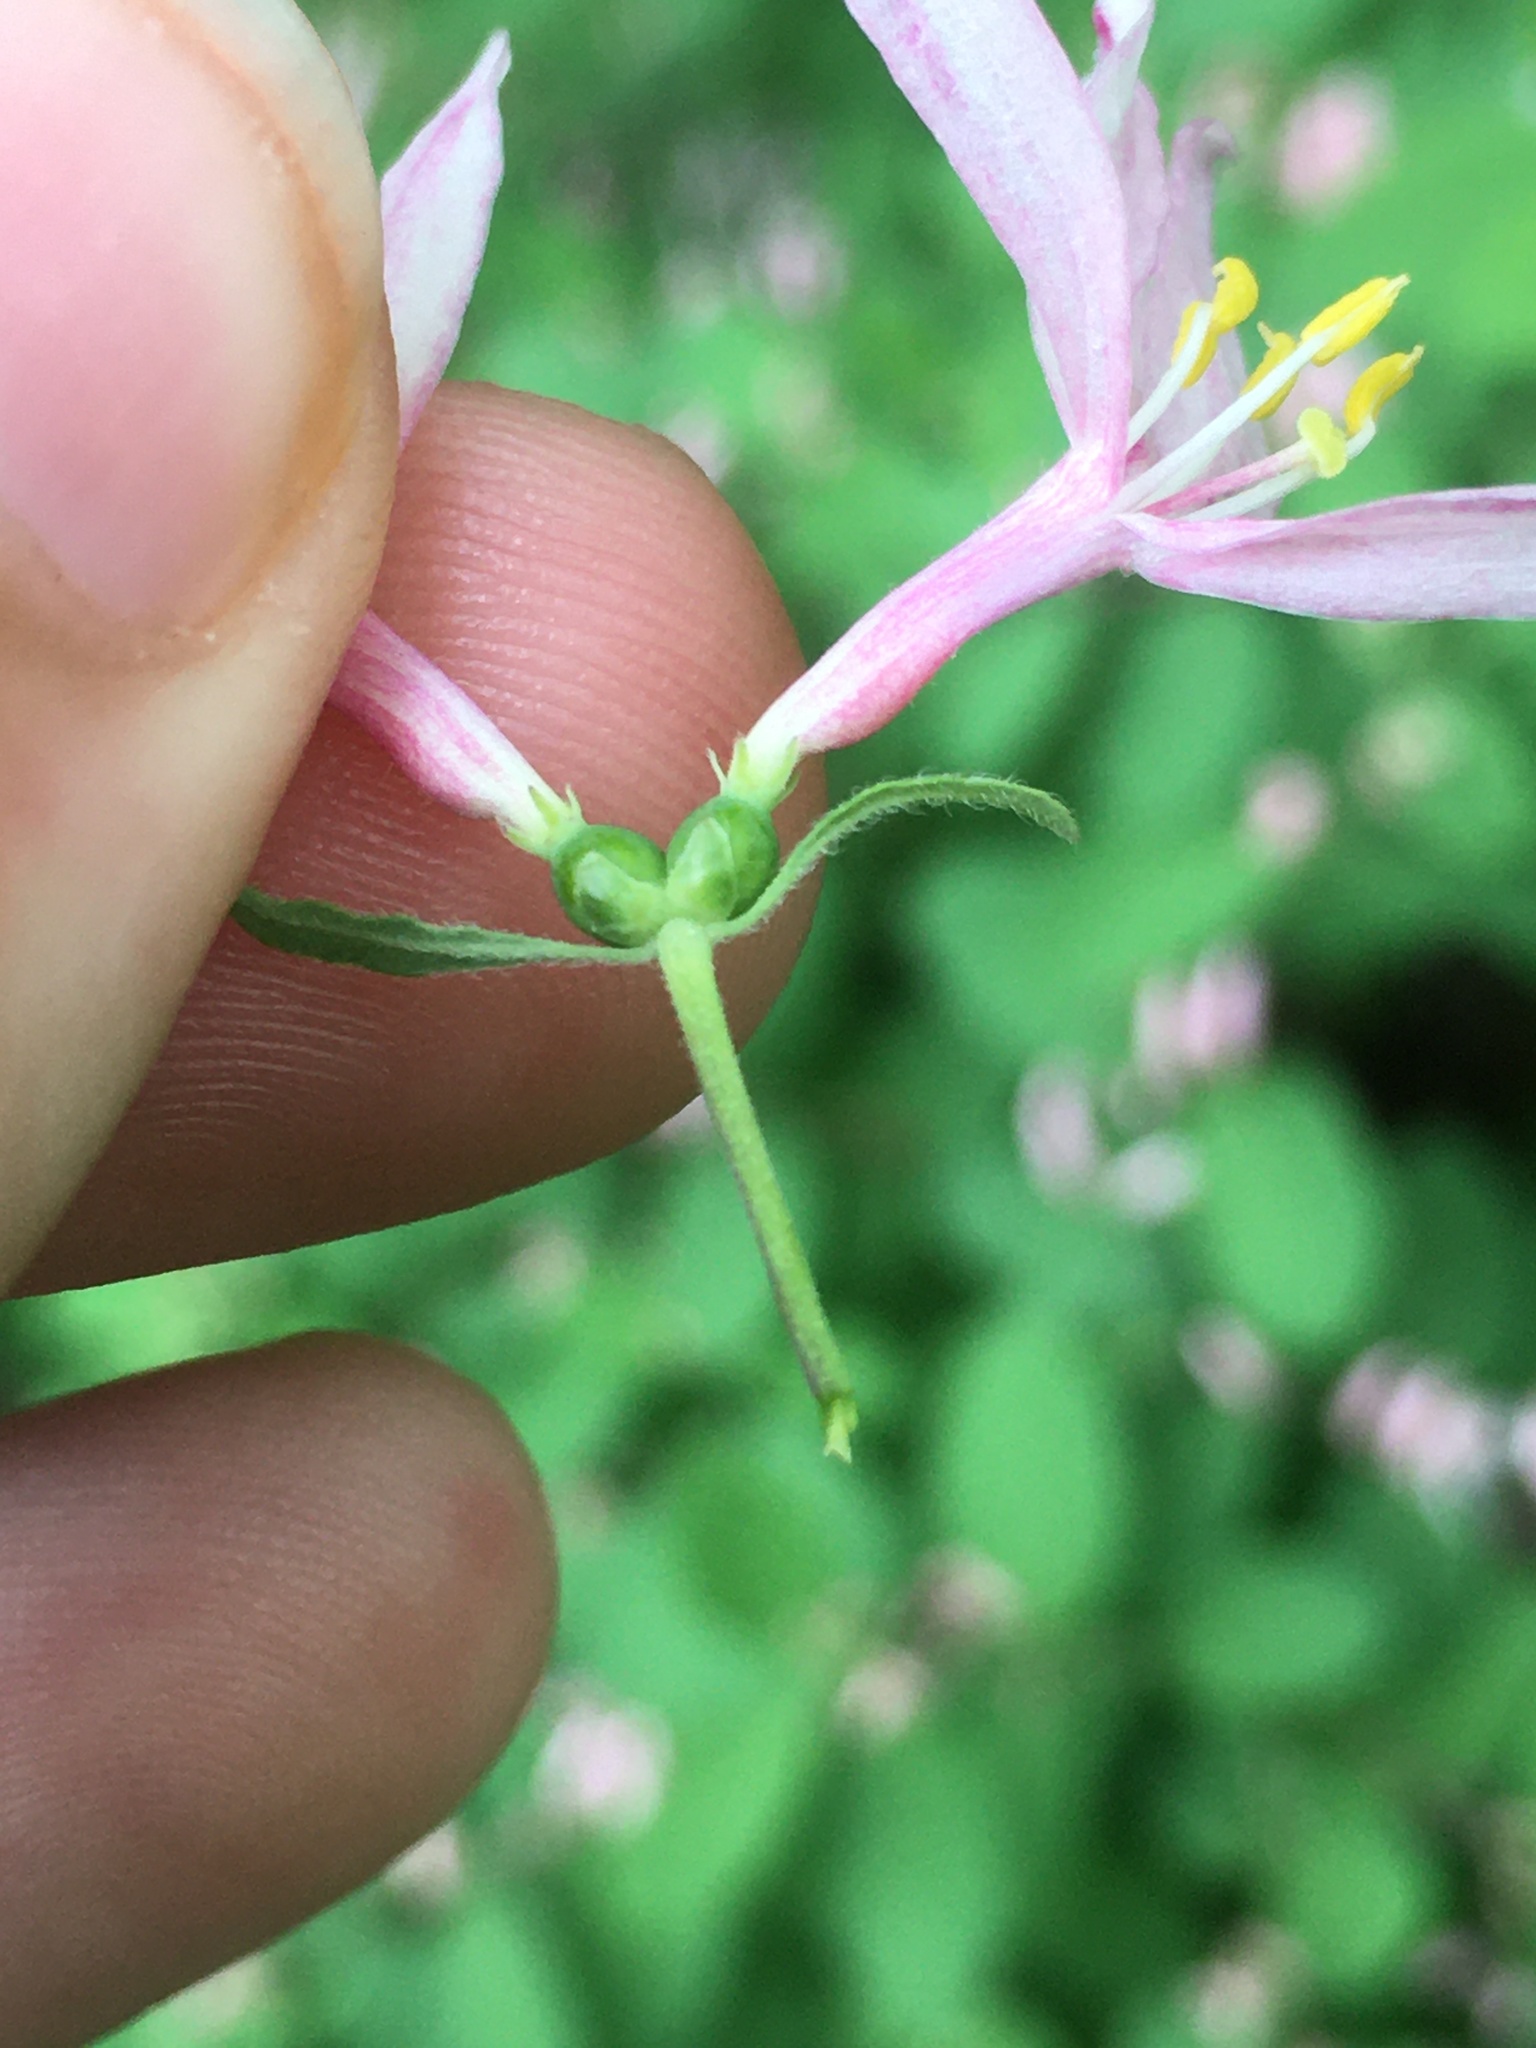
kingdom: Plantae
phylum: Tracheophyta
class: Magnoliopsida
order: Dipsacales
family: Caprifoliaceae
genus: Lonicera
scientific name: Lonicera bella
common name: Bell's honeysuckle
